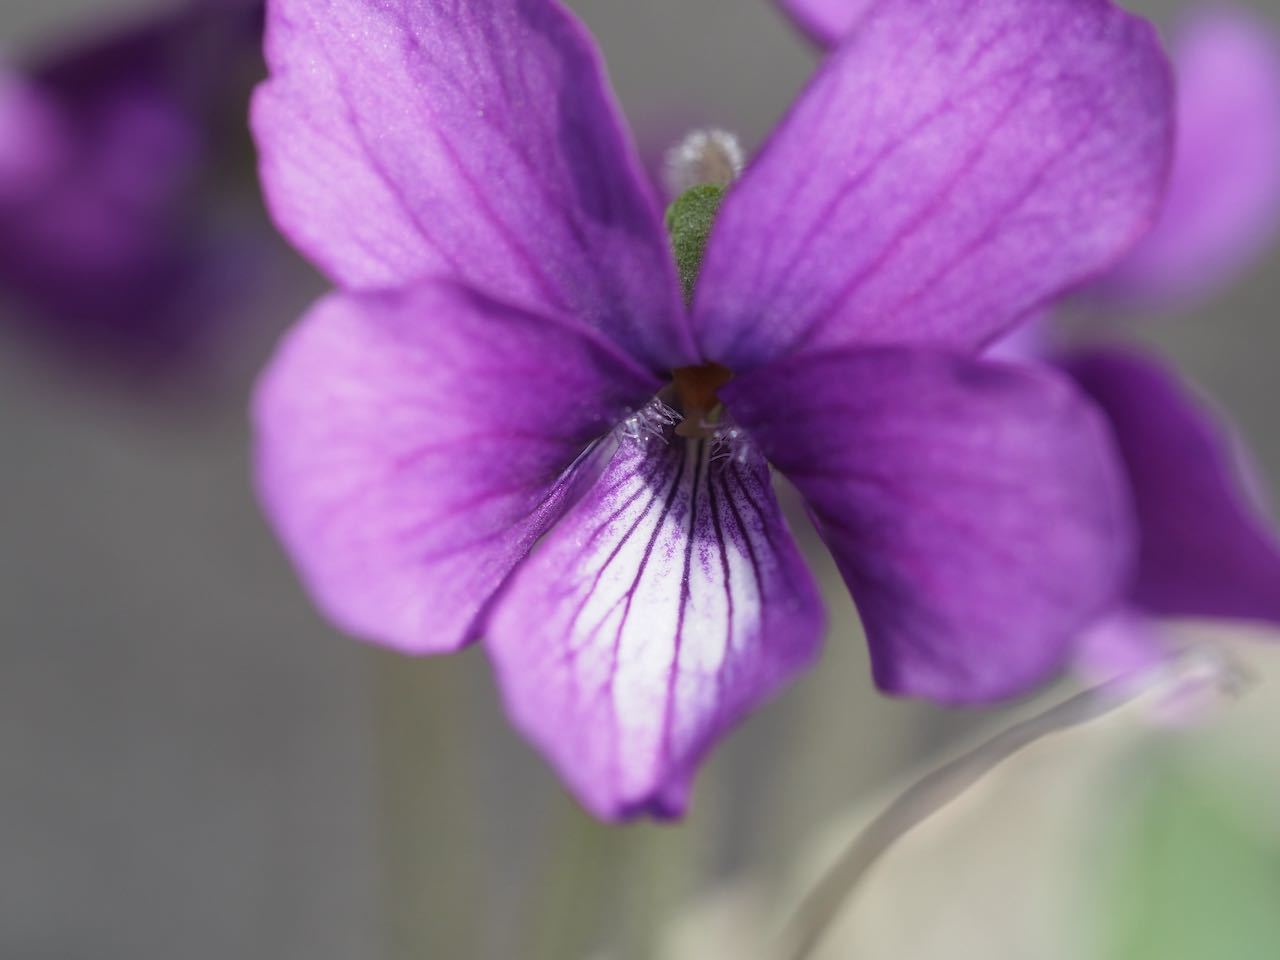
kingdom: Plantae
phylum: Tracheophyta
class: Magnoliopsida
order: Malpighiales
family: Violaceae
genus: Viola
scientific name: Viola mandshurica
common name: Manchuria violet
